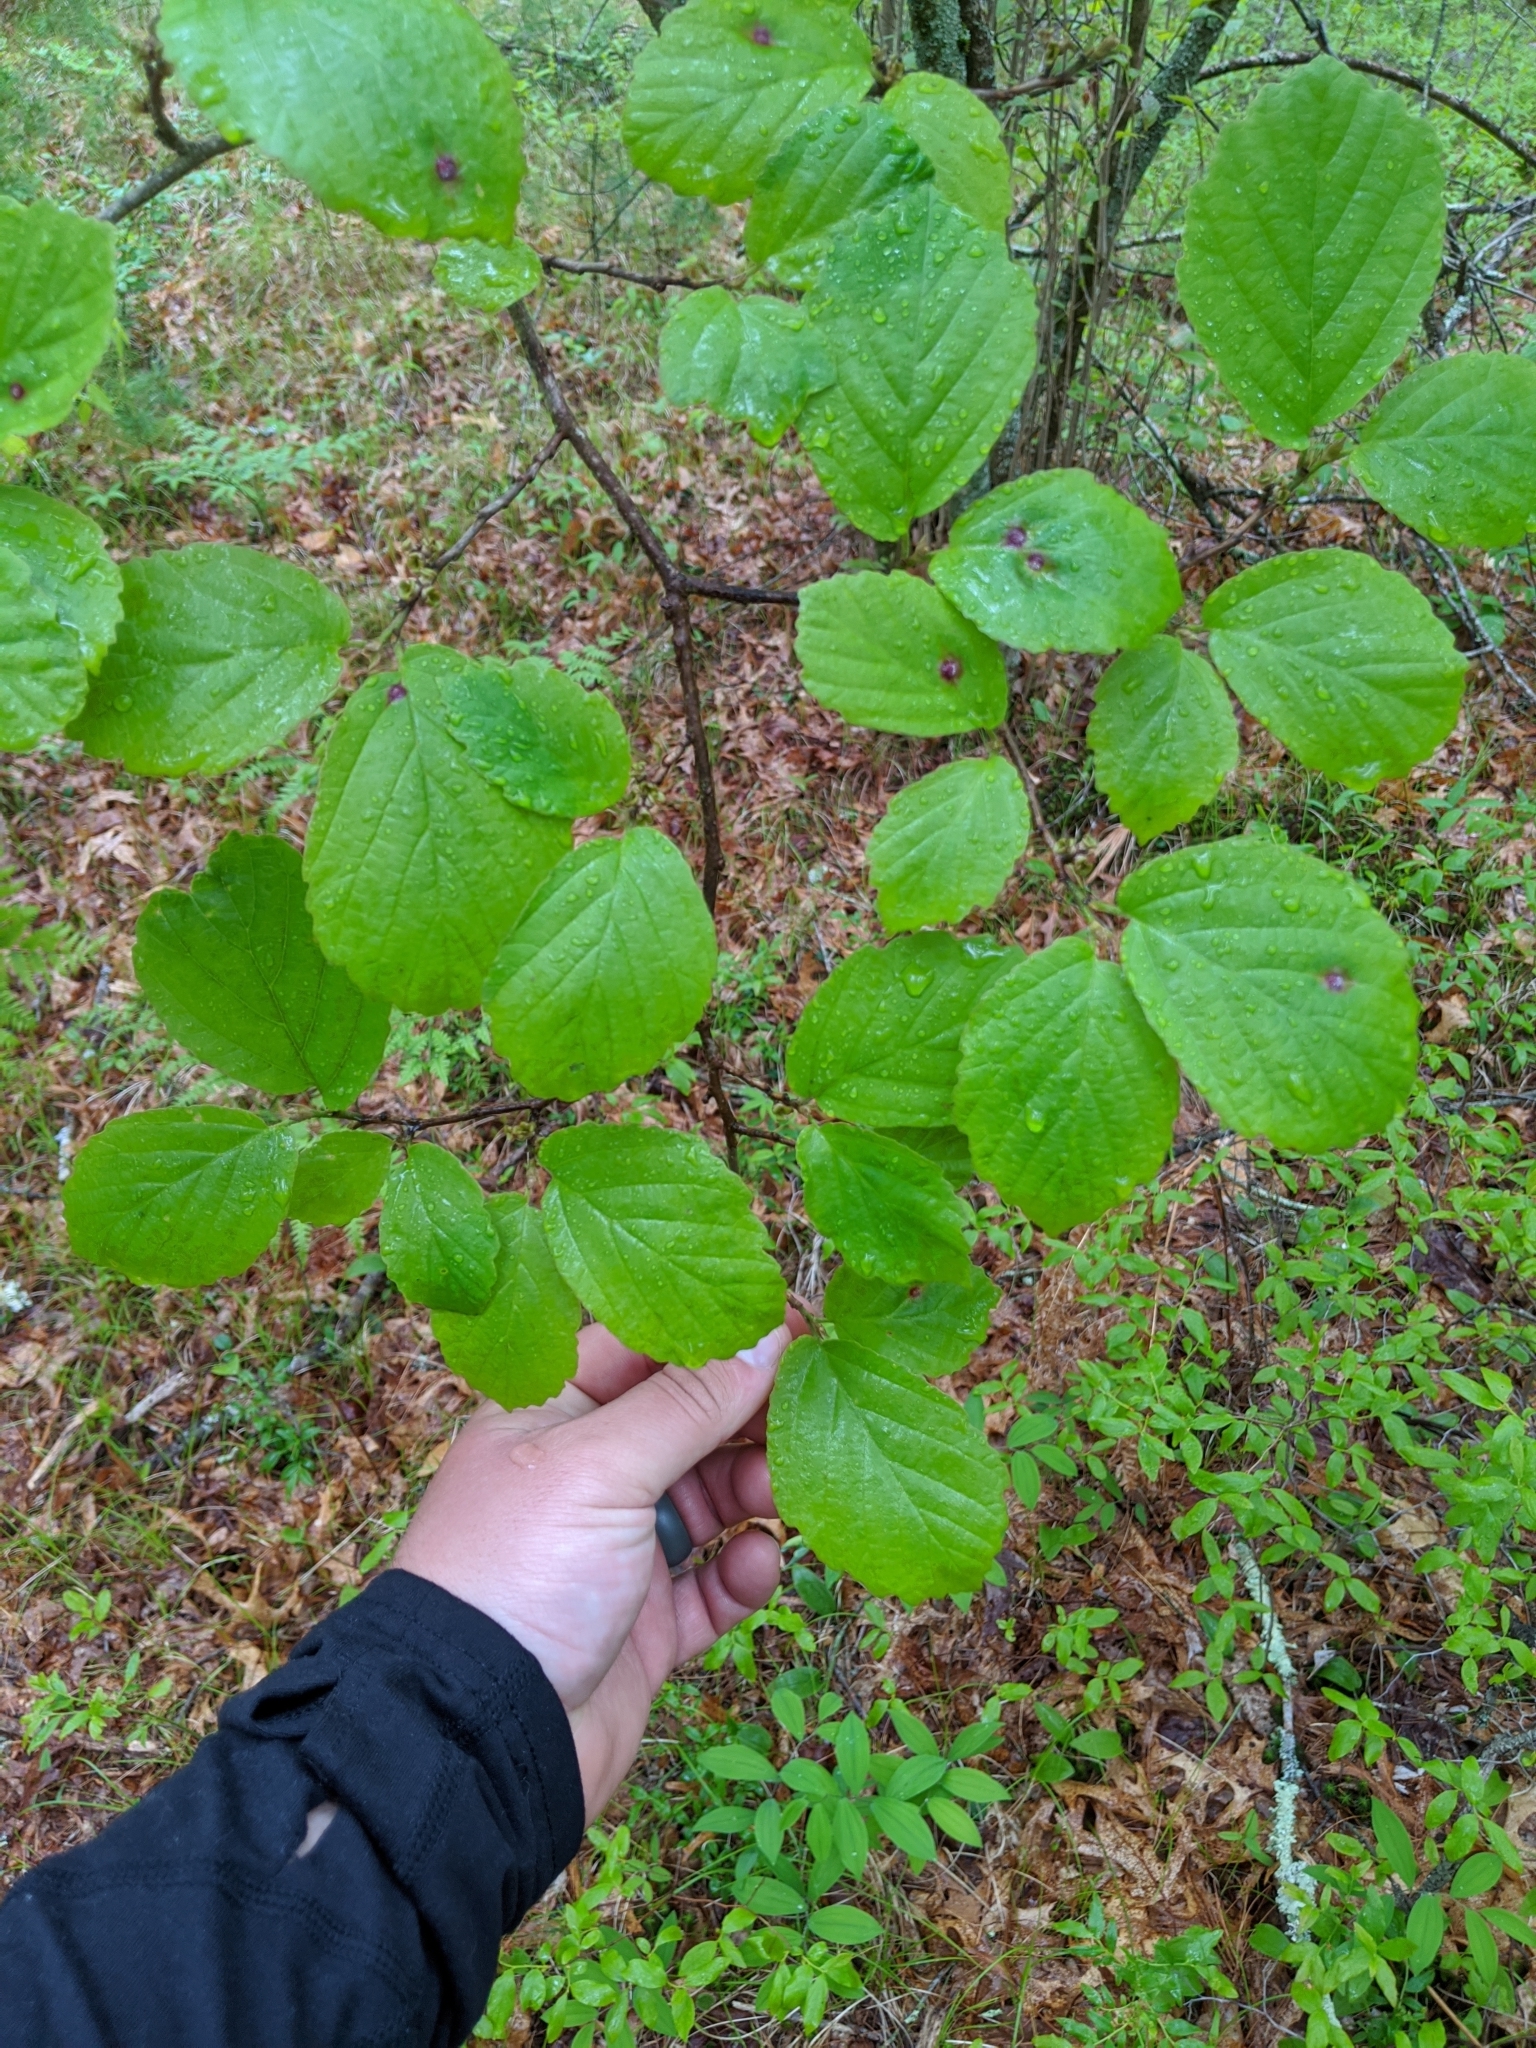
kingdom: Plantae
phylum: Tracheophyta
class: Magnoliopsida
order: Saxifragales
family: Hamamelidaceae
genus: Hamamelis
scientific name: Hamamelis virginiana
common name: Witch-hazel
